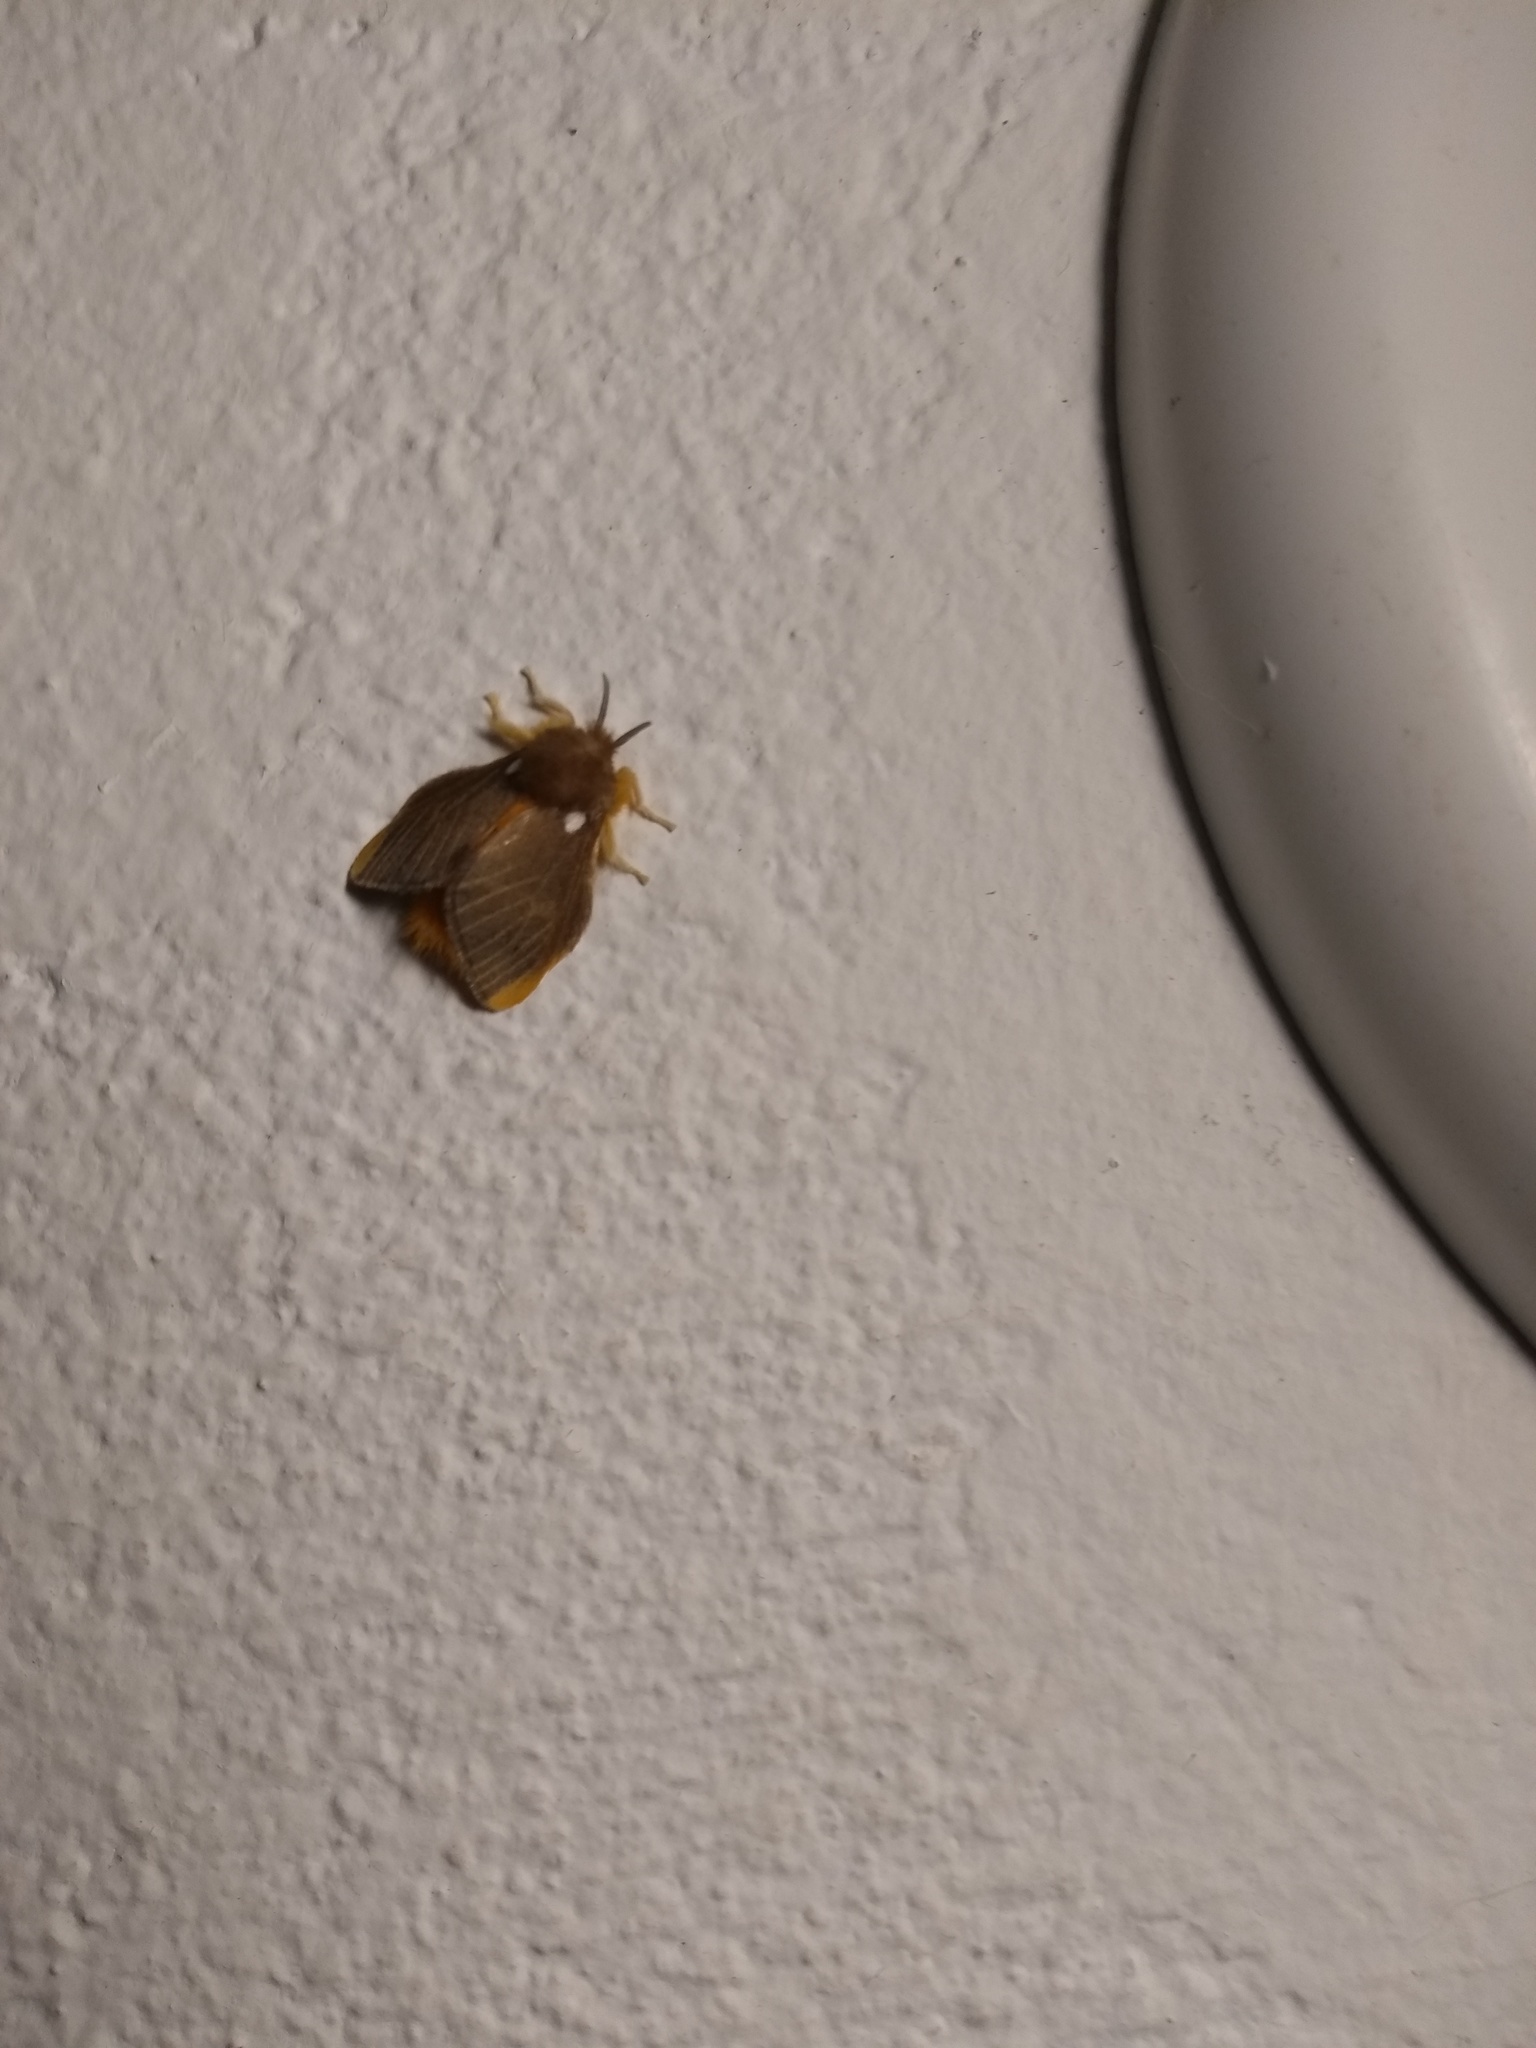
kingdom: Animalia
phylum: Arthropoda
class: Insecta
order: Lepidoptera
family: Megalopygidae
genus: Megalopyge
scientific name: Megalopyge basalis
